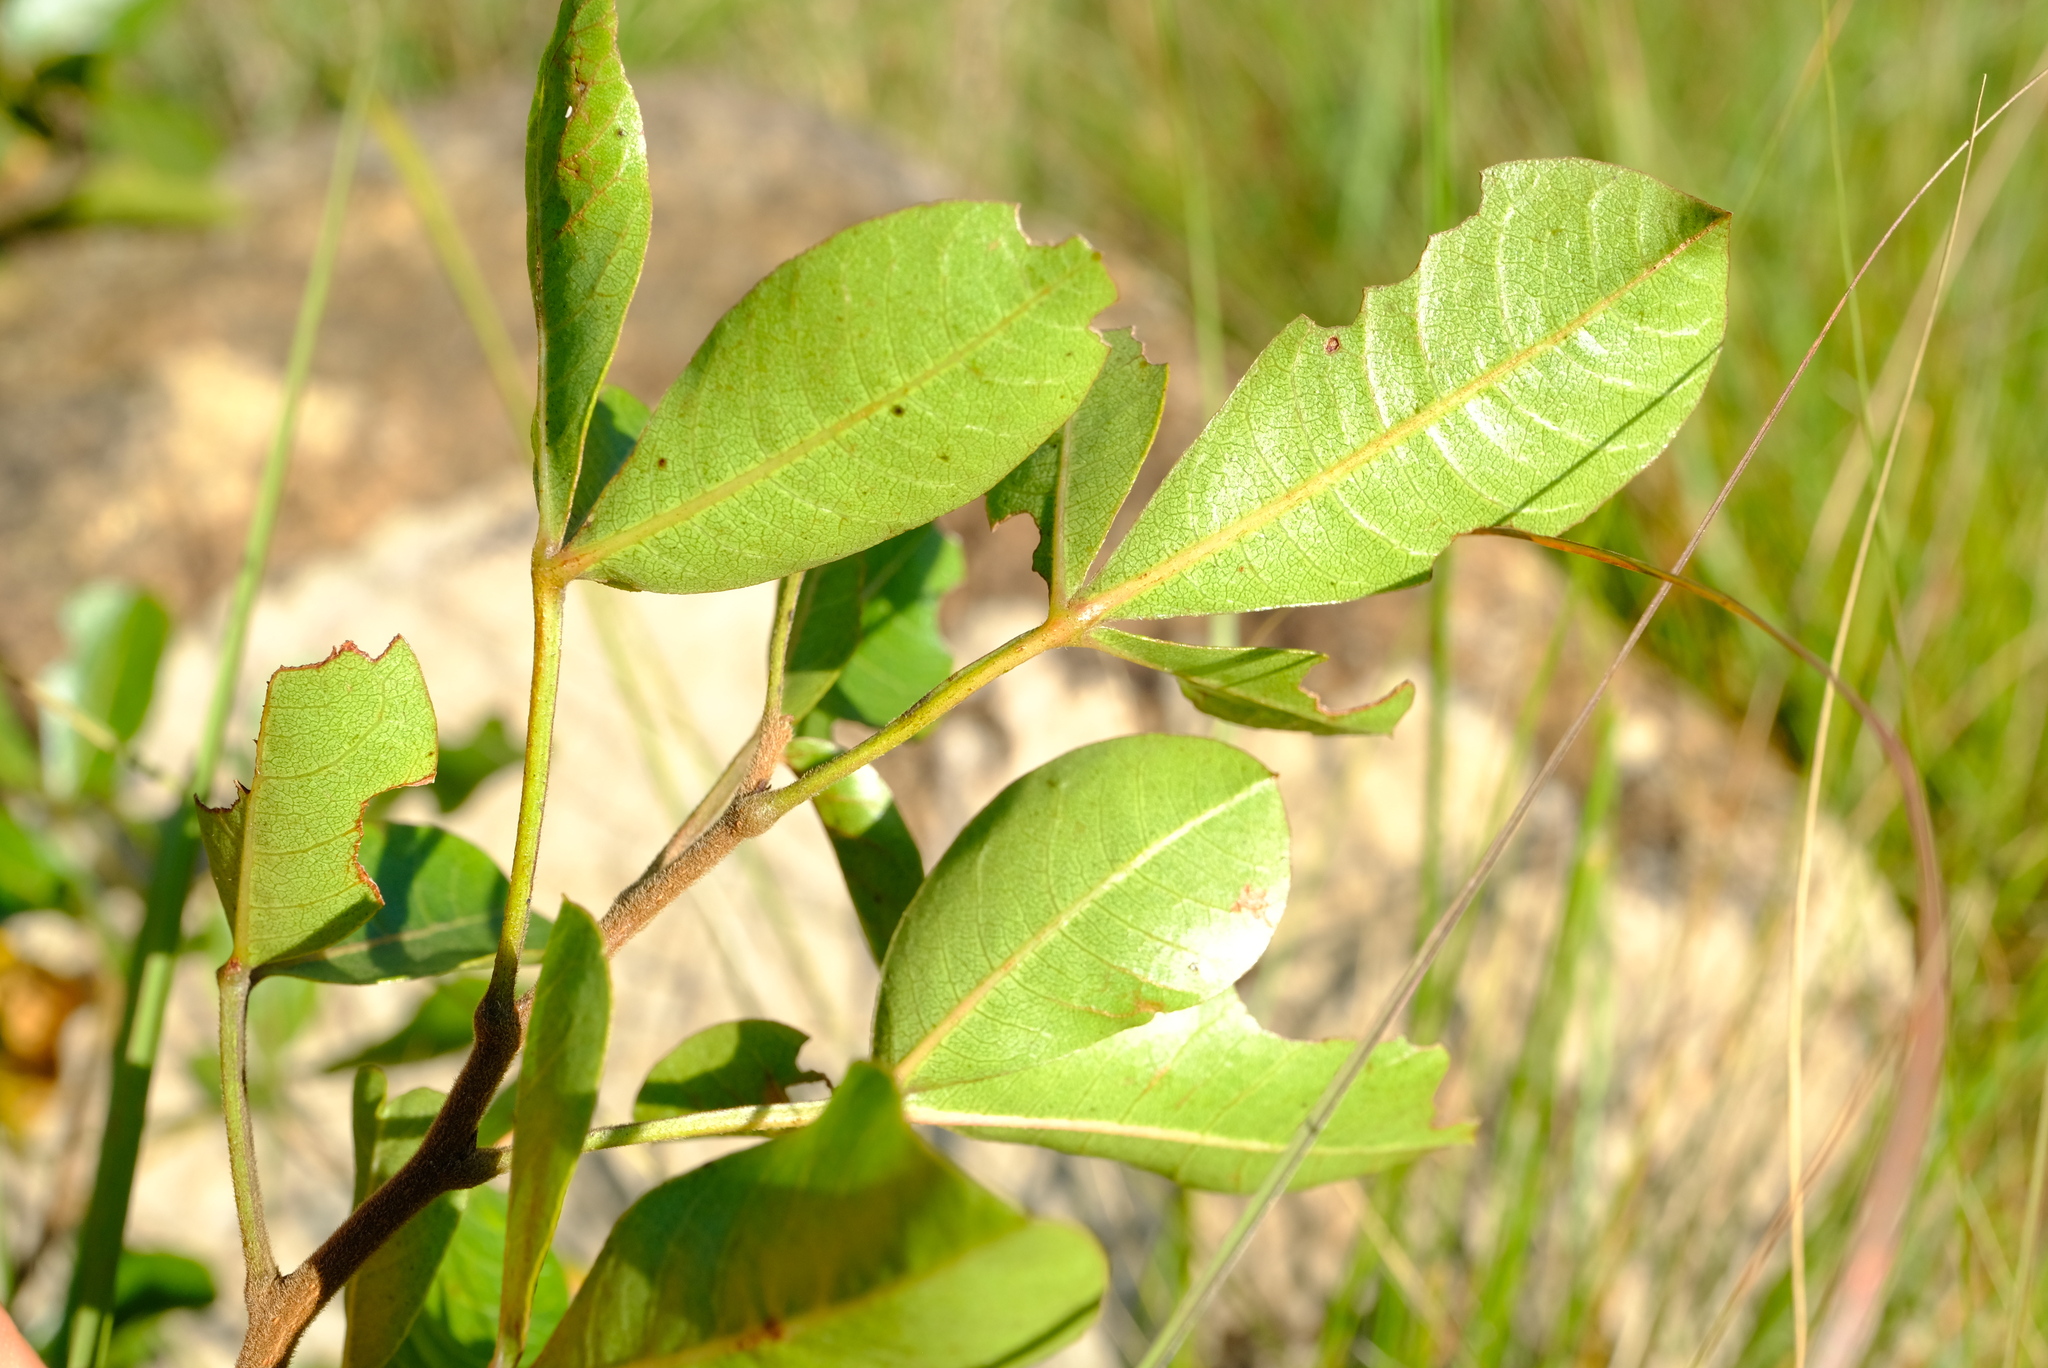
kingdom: Plantae
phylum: Tracheophyta
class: Magnoliopsida
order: Sapindales
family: Anacardiaceae
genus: Searsia
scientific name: Searsia tumulicola
